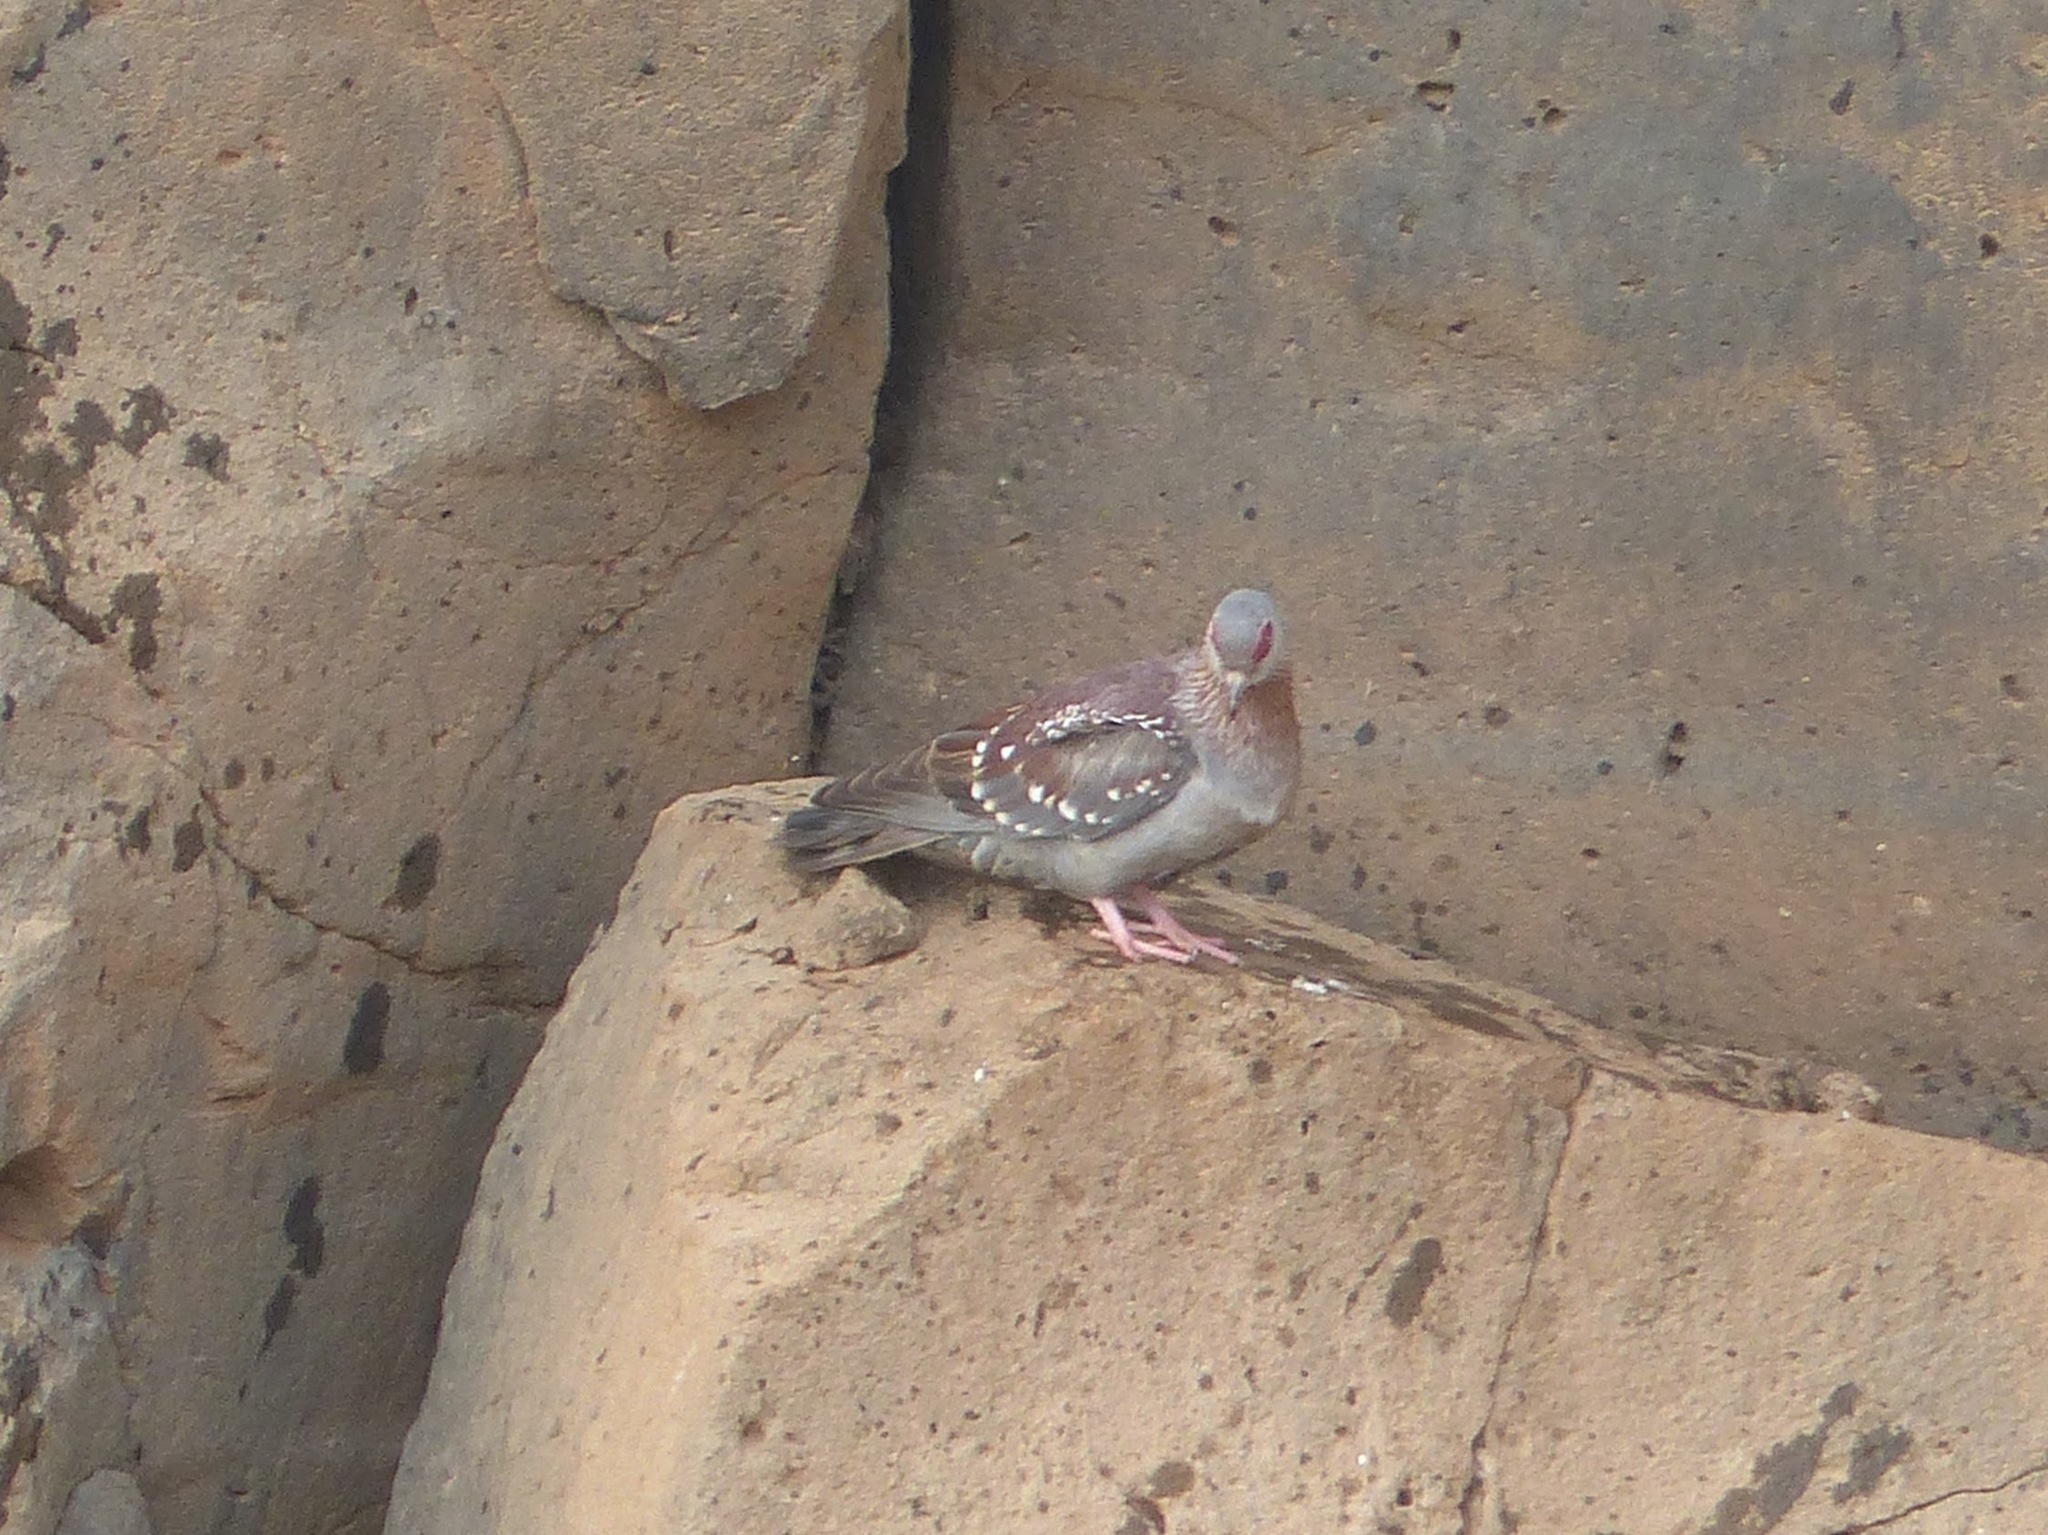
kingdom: Animalia
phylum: Chordata
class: Aves
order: Columbiformes
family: Columbidae
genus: Columba
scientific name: Columba guinea
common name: Speckled pigeon
